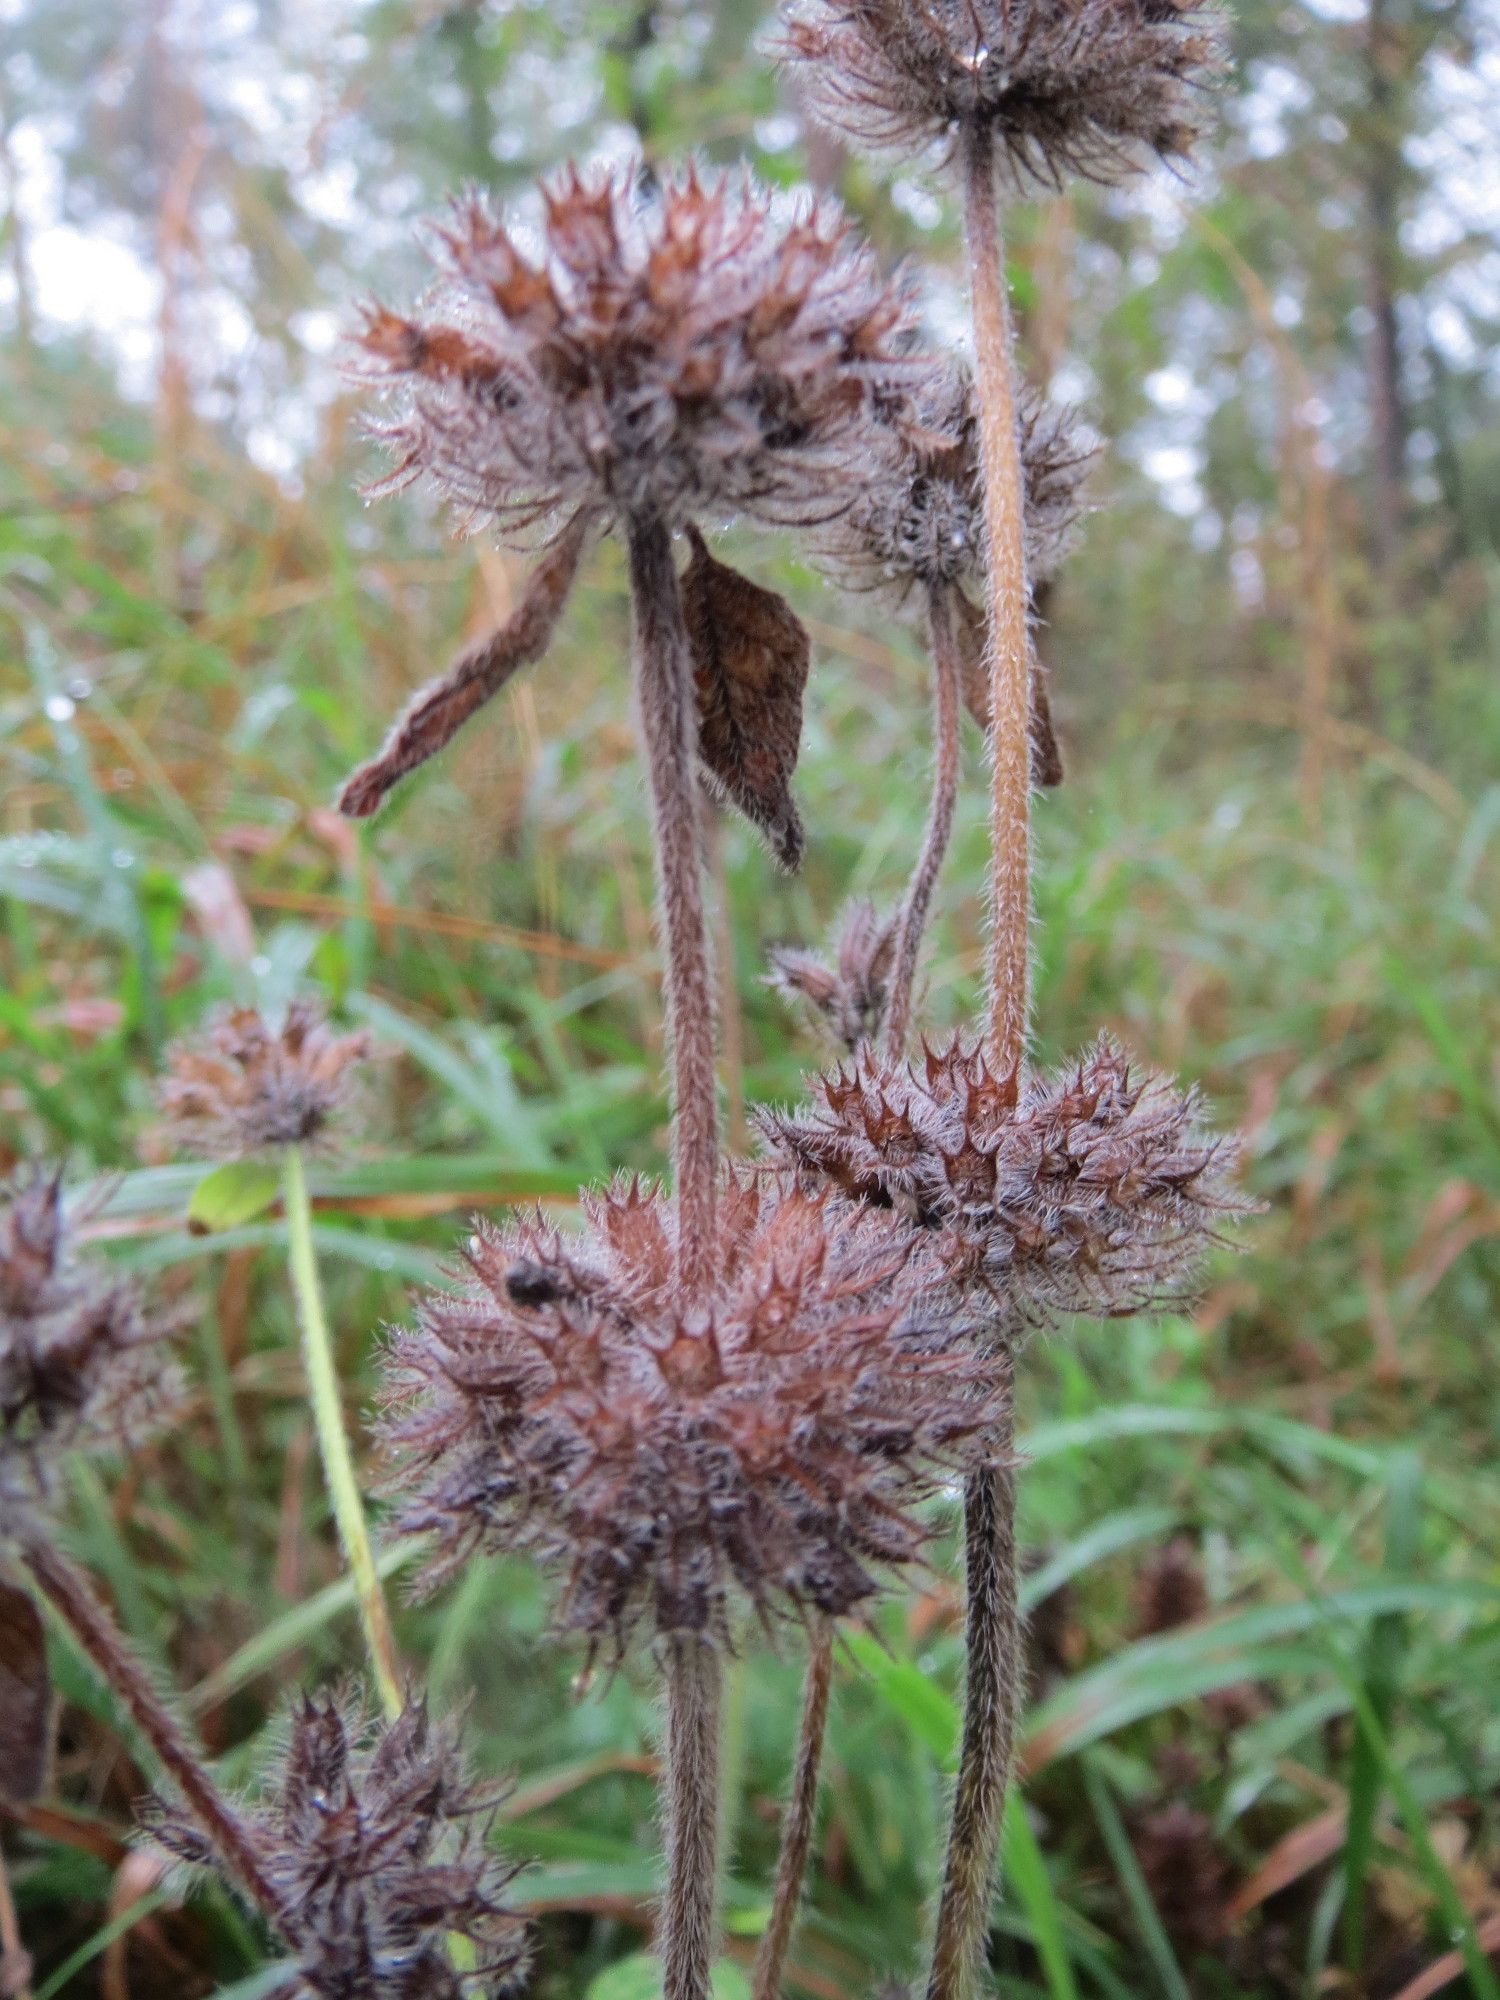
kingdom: Plantae
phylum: Tracheophyta
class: Magnoliopsida
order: Lamiales
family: Lamiaceae
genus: Clinopodium
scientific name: Clinopodium vulgare
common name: Wild basil
